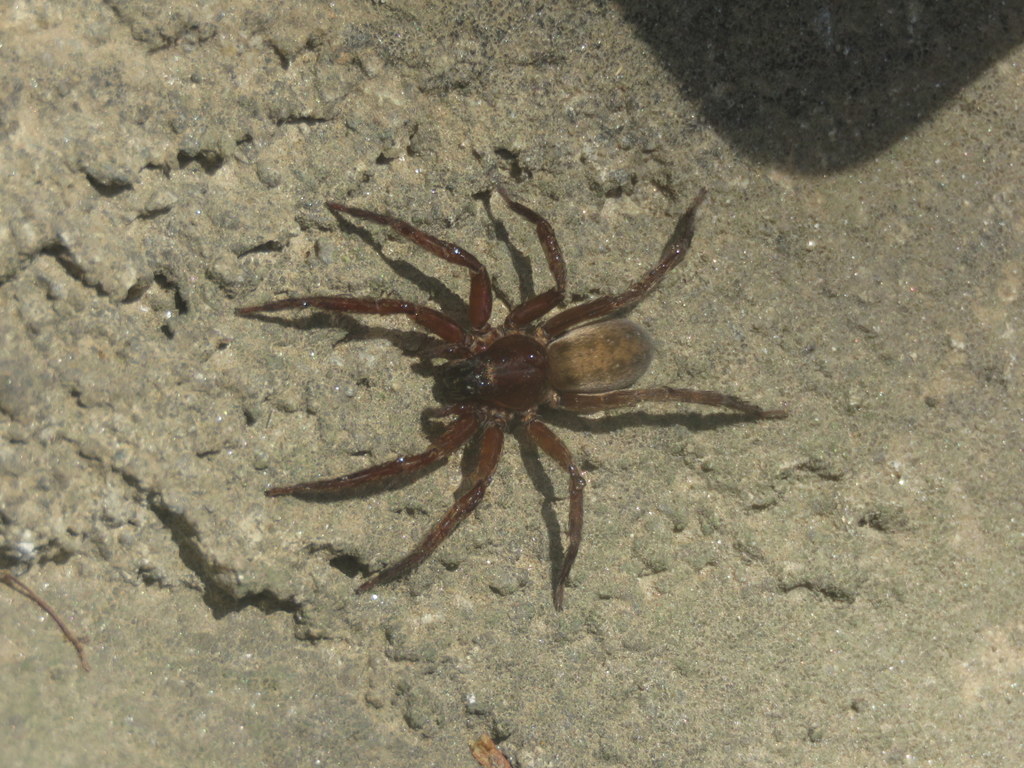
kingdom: Animalia
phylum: Arthropoda
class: Arachnida
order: Araneae
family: Ctenidae
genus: Asthenoctenus
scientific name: Asthenoctenus borellii
